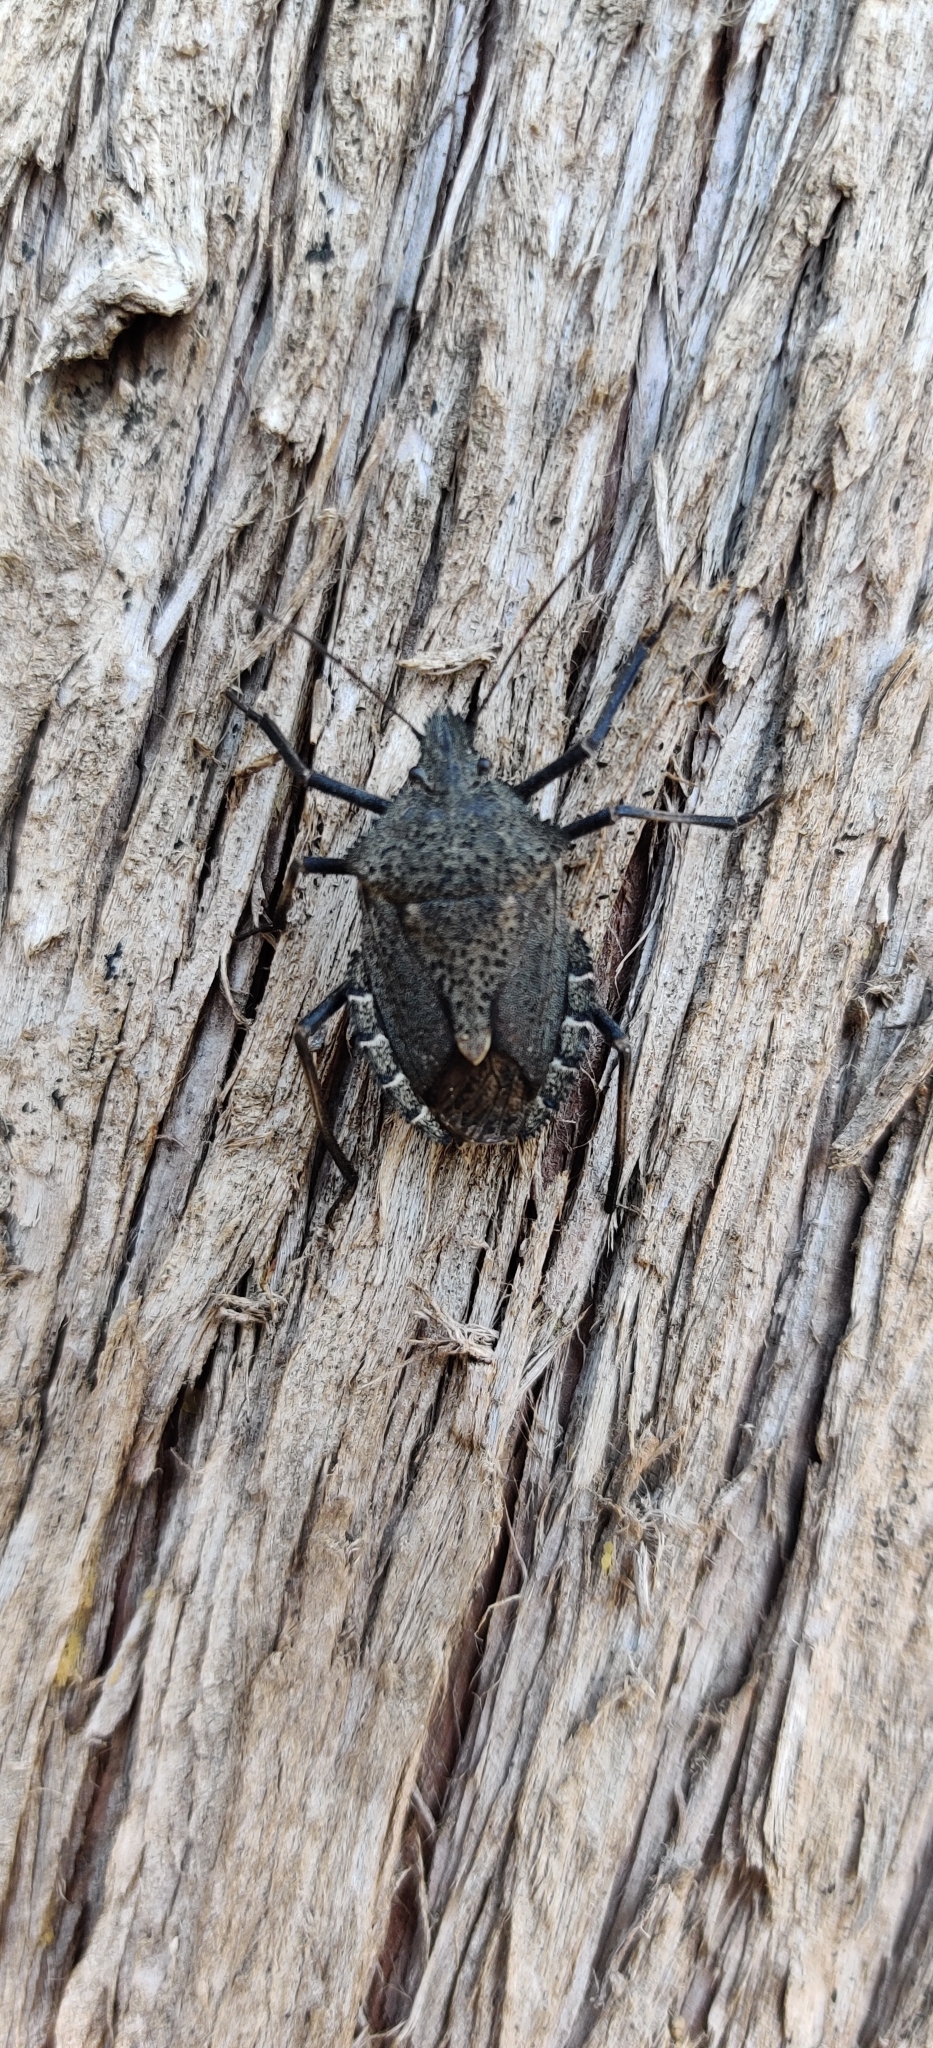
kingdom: Animalia
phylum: Arthropoda
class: Insecta
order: Hemiptera
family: Pentatomidae
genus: Mustha
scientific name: Mustha spinosula
